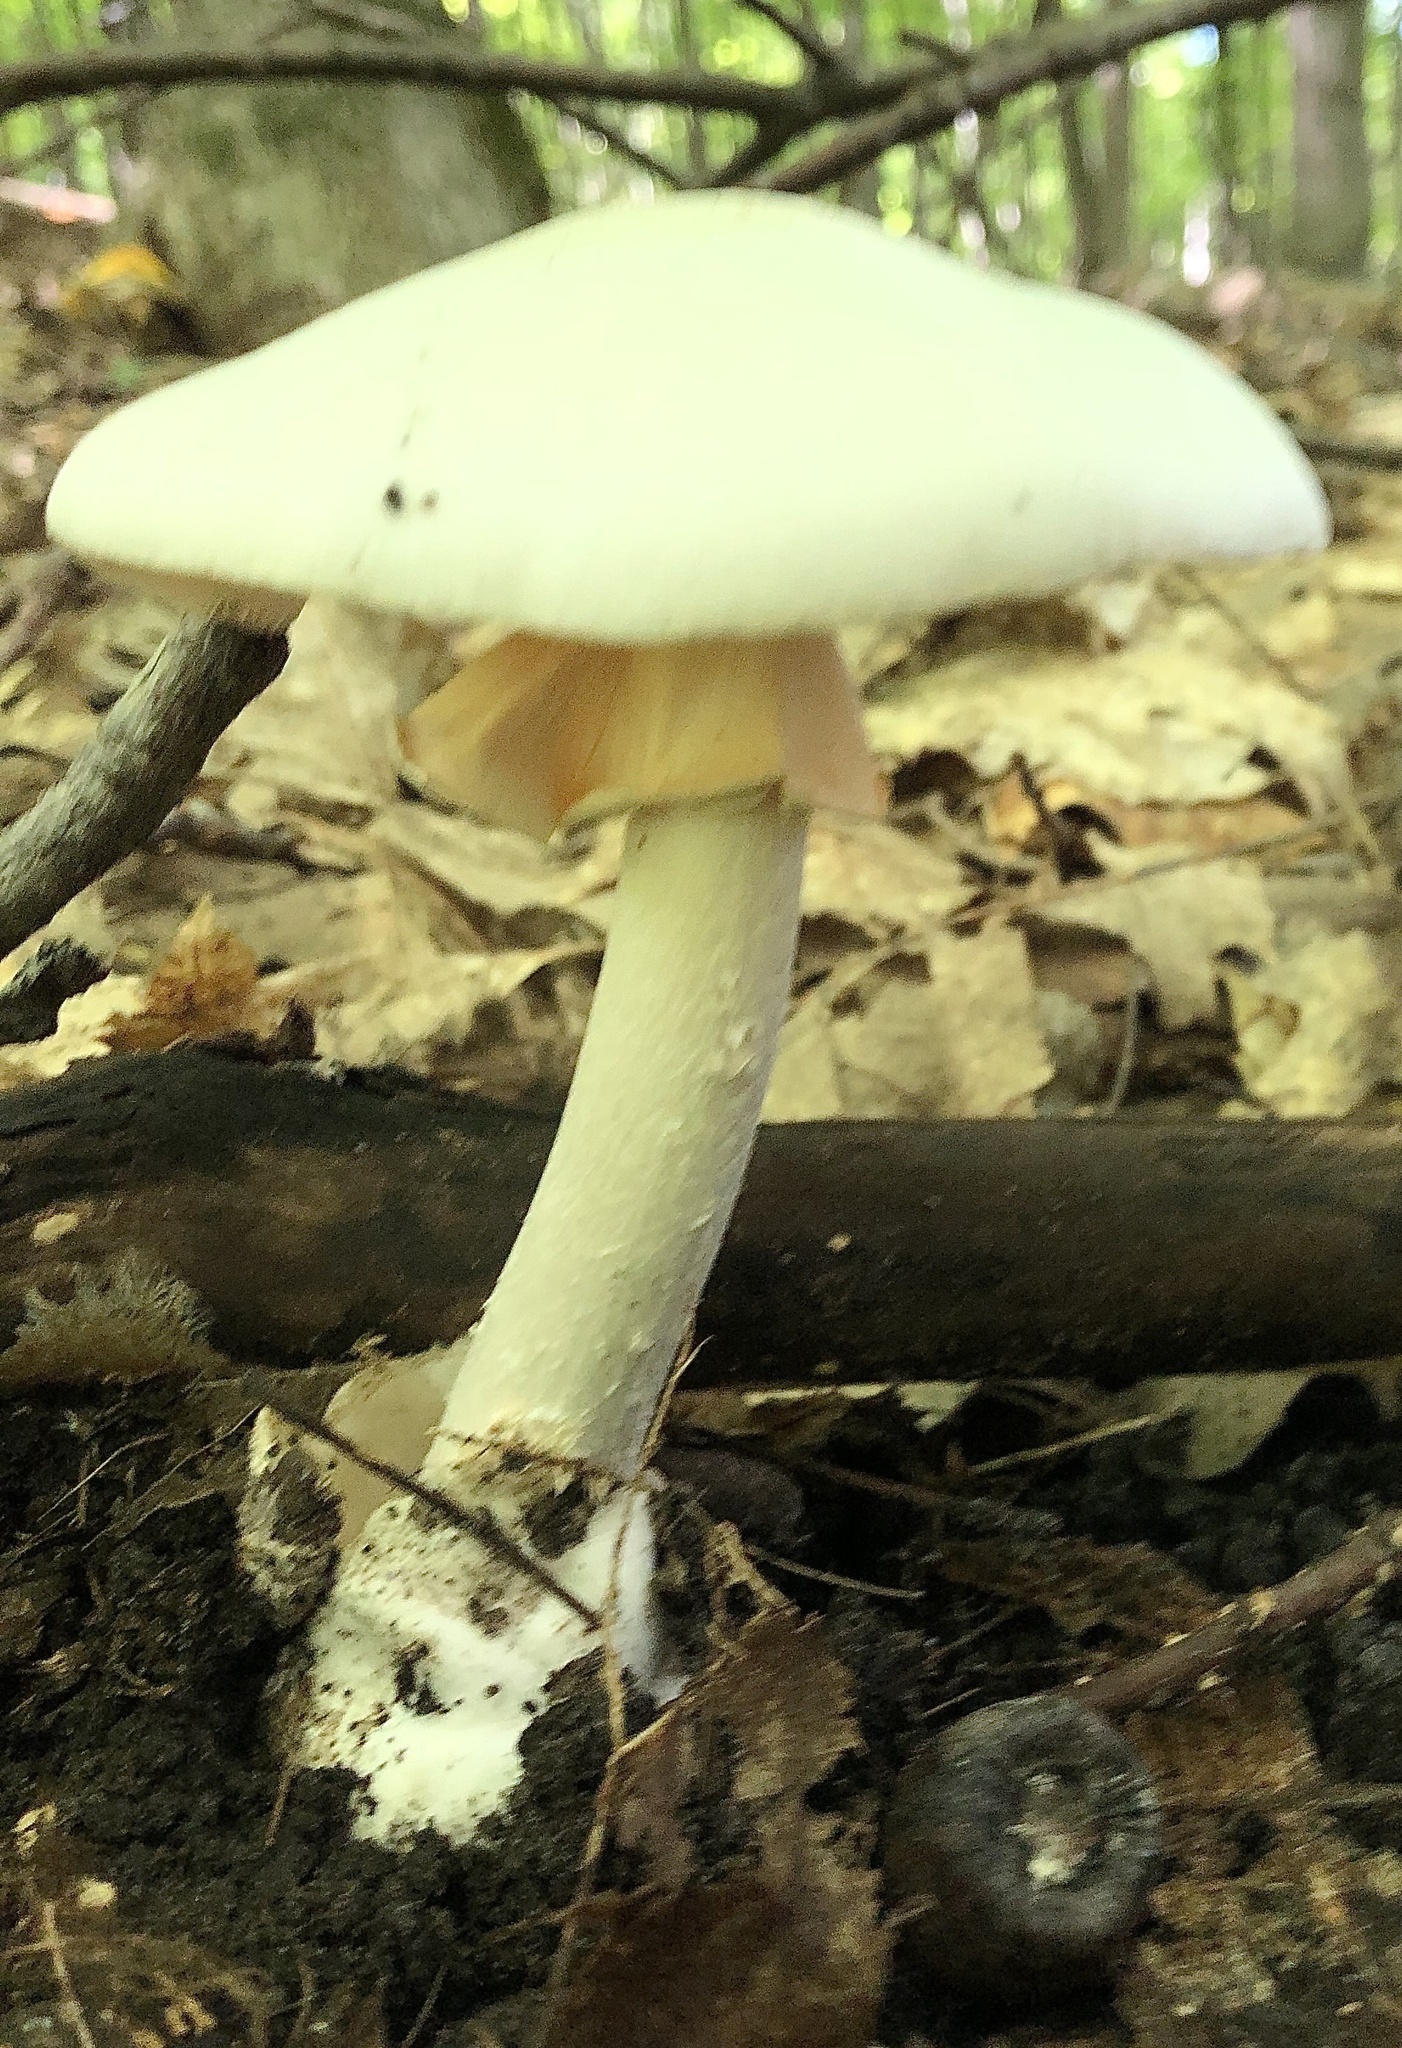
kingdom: Fungi
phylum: Basidiomycota
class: Agaricomycetes
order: Agaricales
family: Amanitaceae
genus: Amanita
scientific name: Amanita bisporigera
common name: Eastern north american destroying angel
